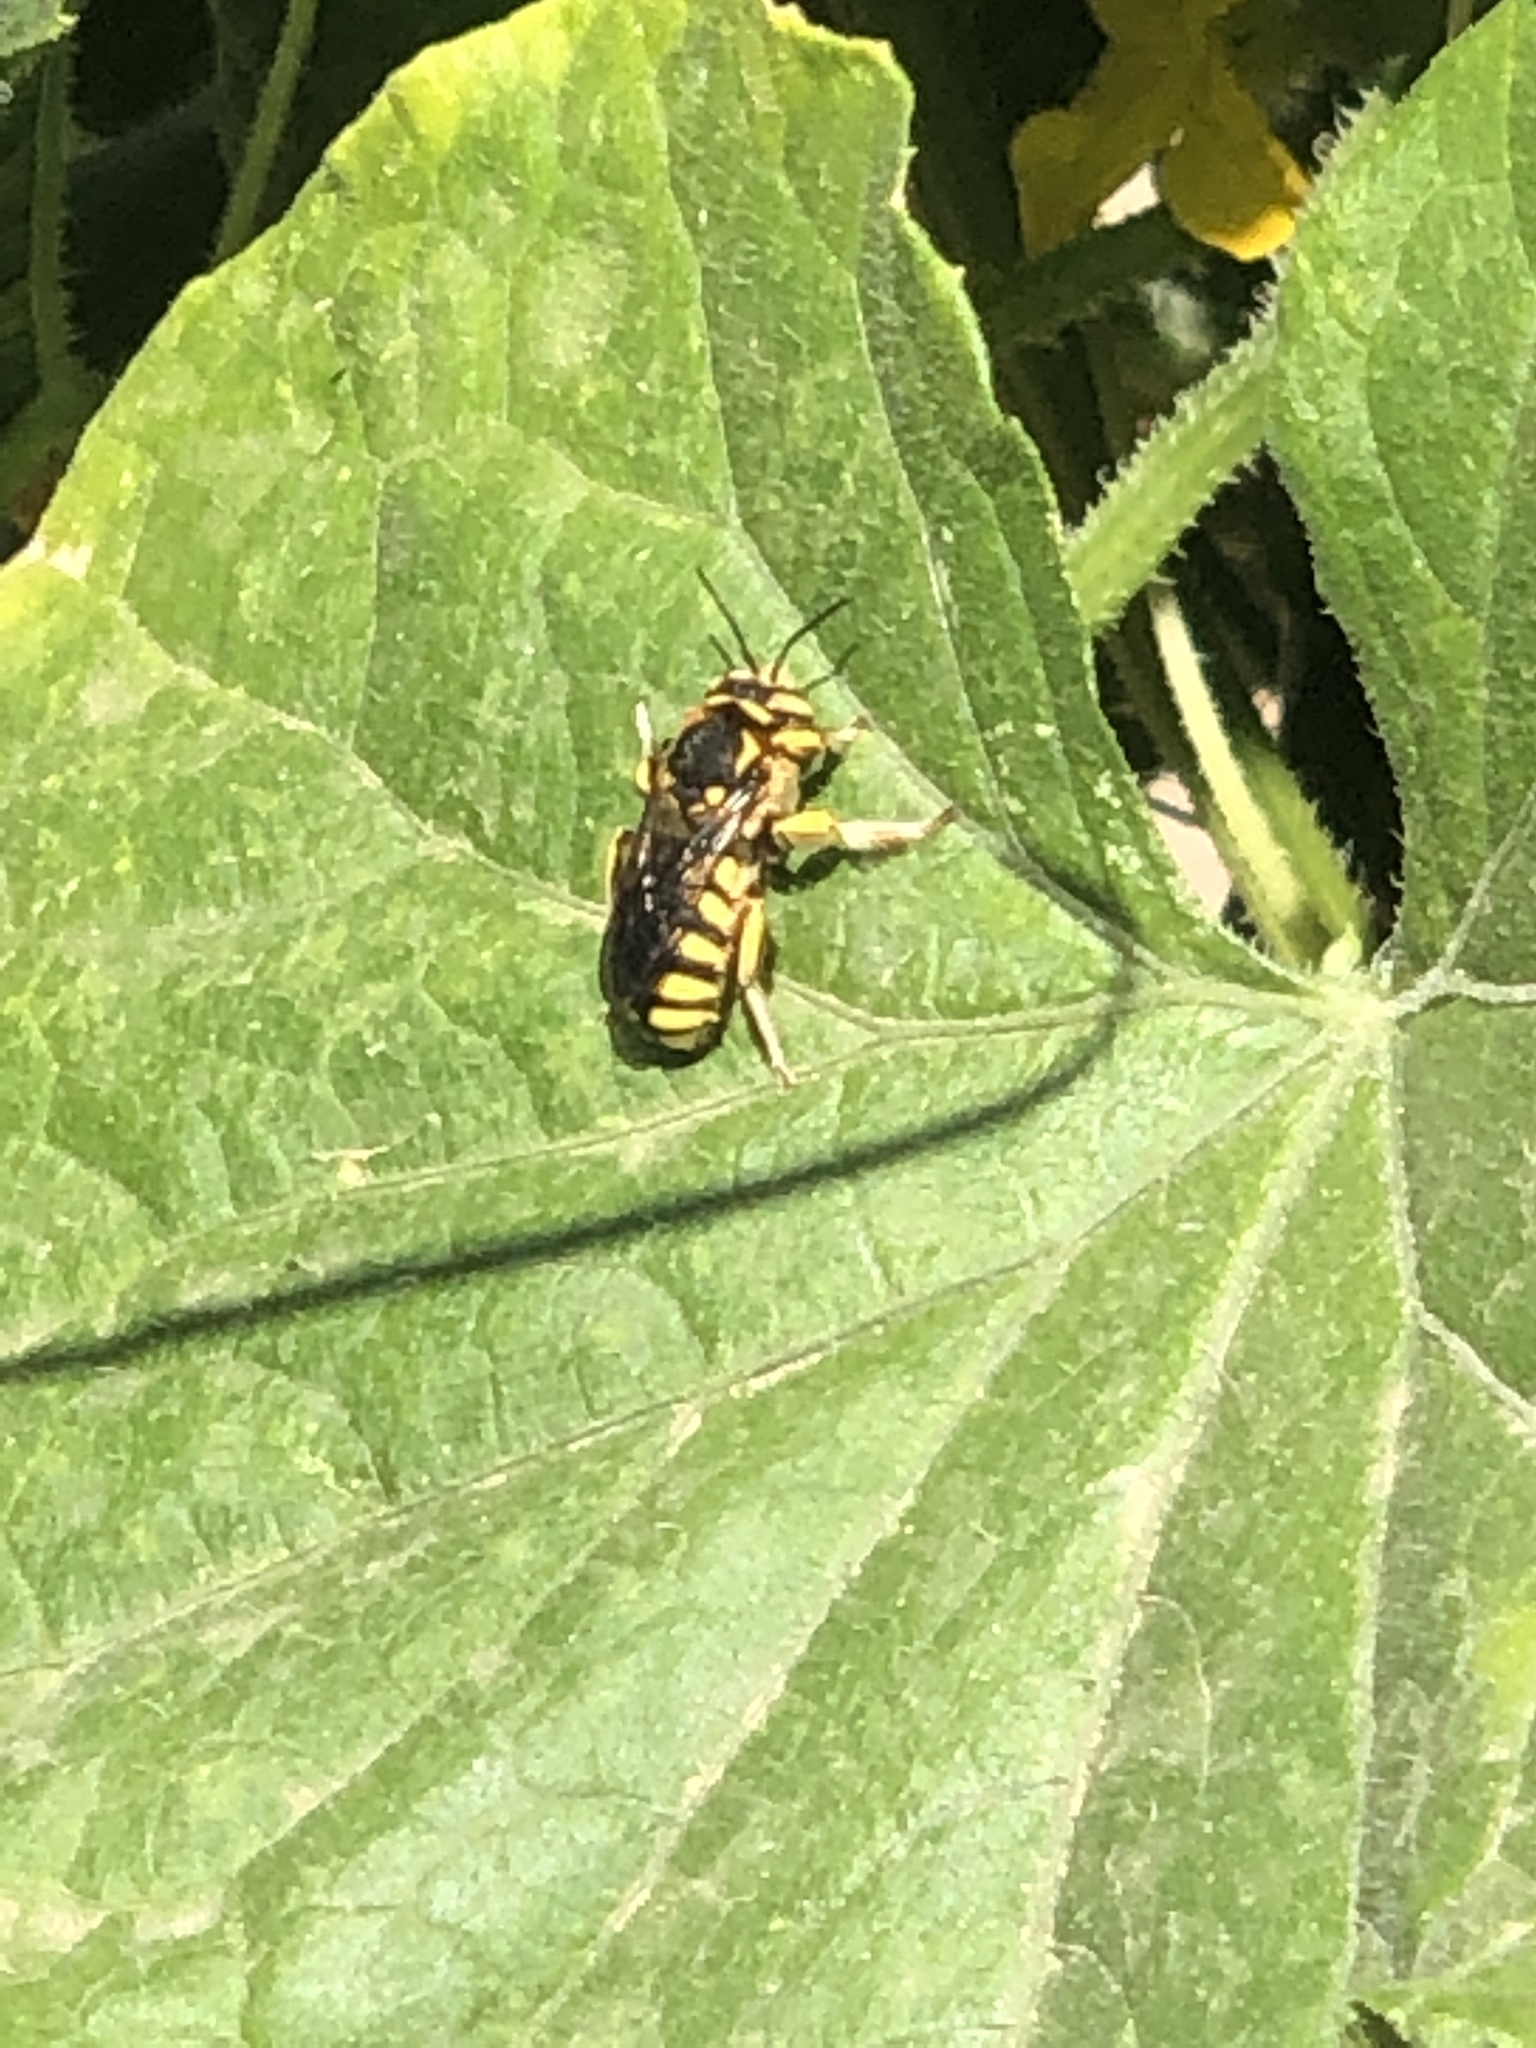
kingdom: Animalia
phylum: Arthropoda
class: Insecta
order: Hymenoptera
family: Megachilidae
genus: Anthidium
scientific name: Anthidium florentinum
